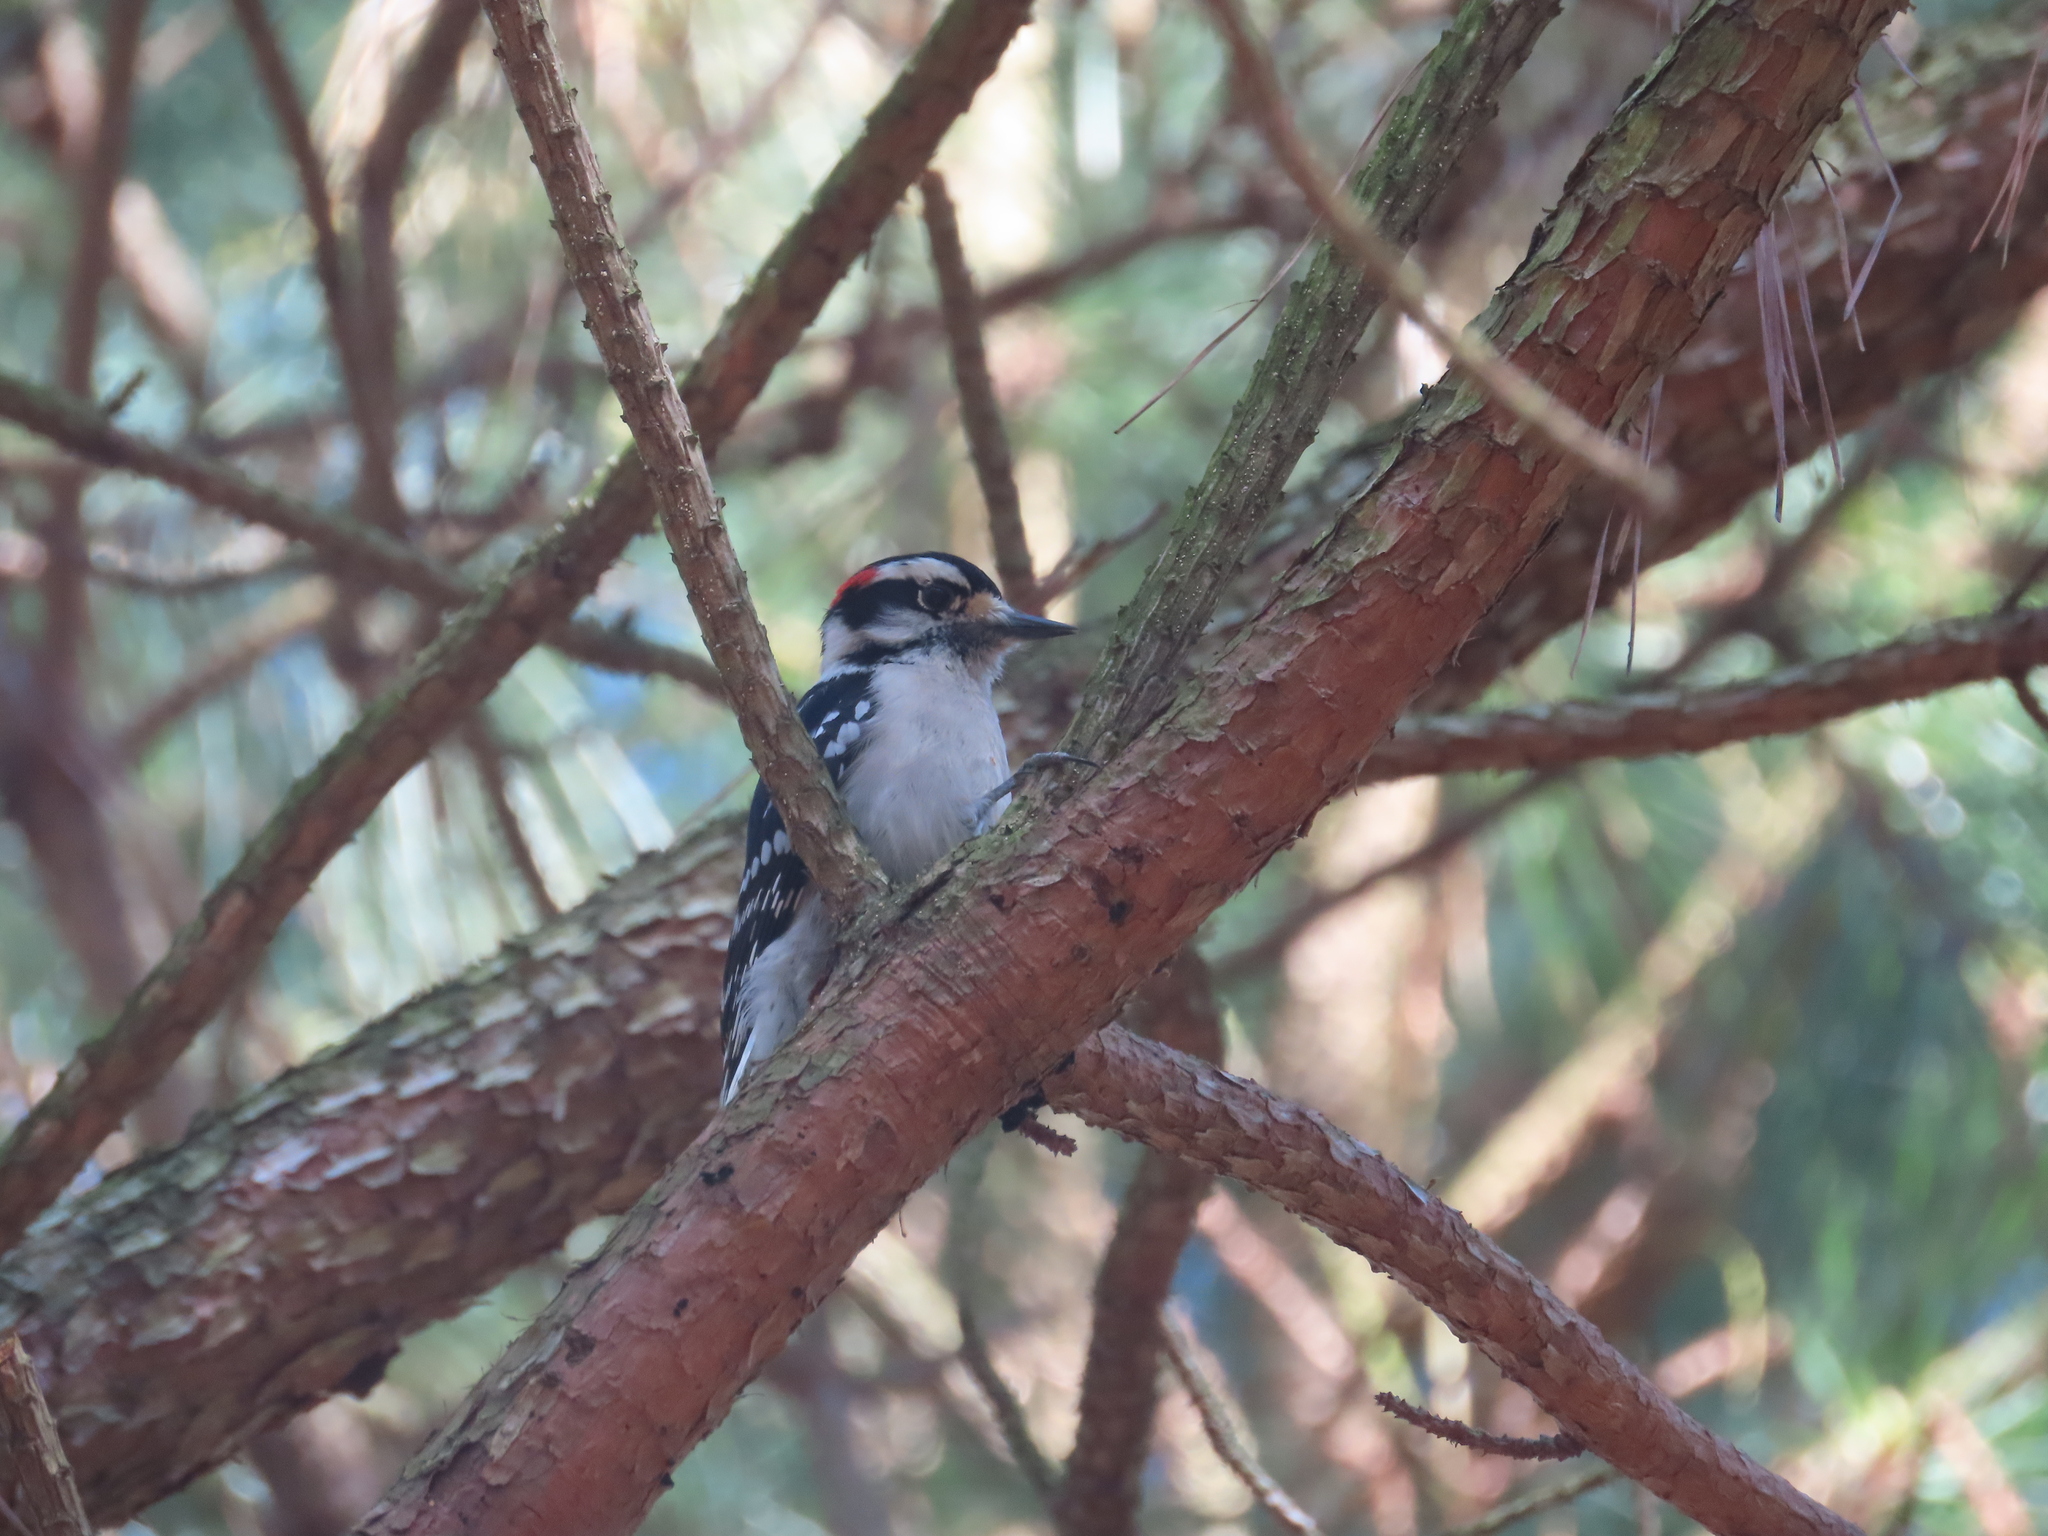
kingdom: Animalia
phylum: Chordata
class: Aves
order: Piciformes
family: Picidae
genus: Dryobates
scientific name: Dryobates pubescens
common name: Downy woodpecker
